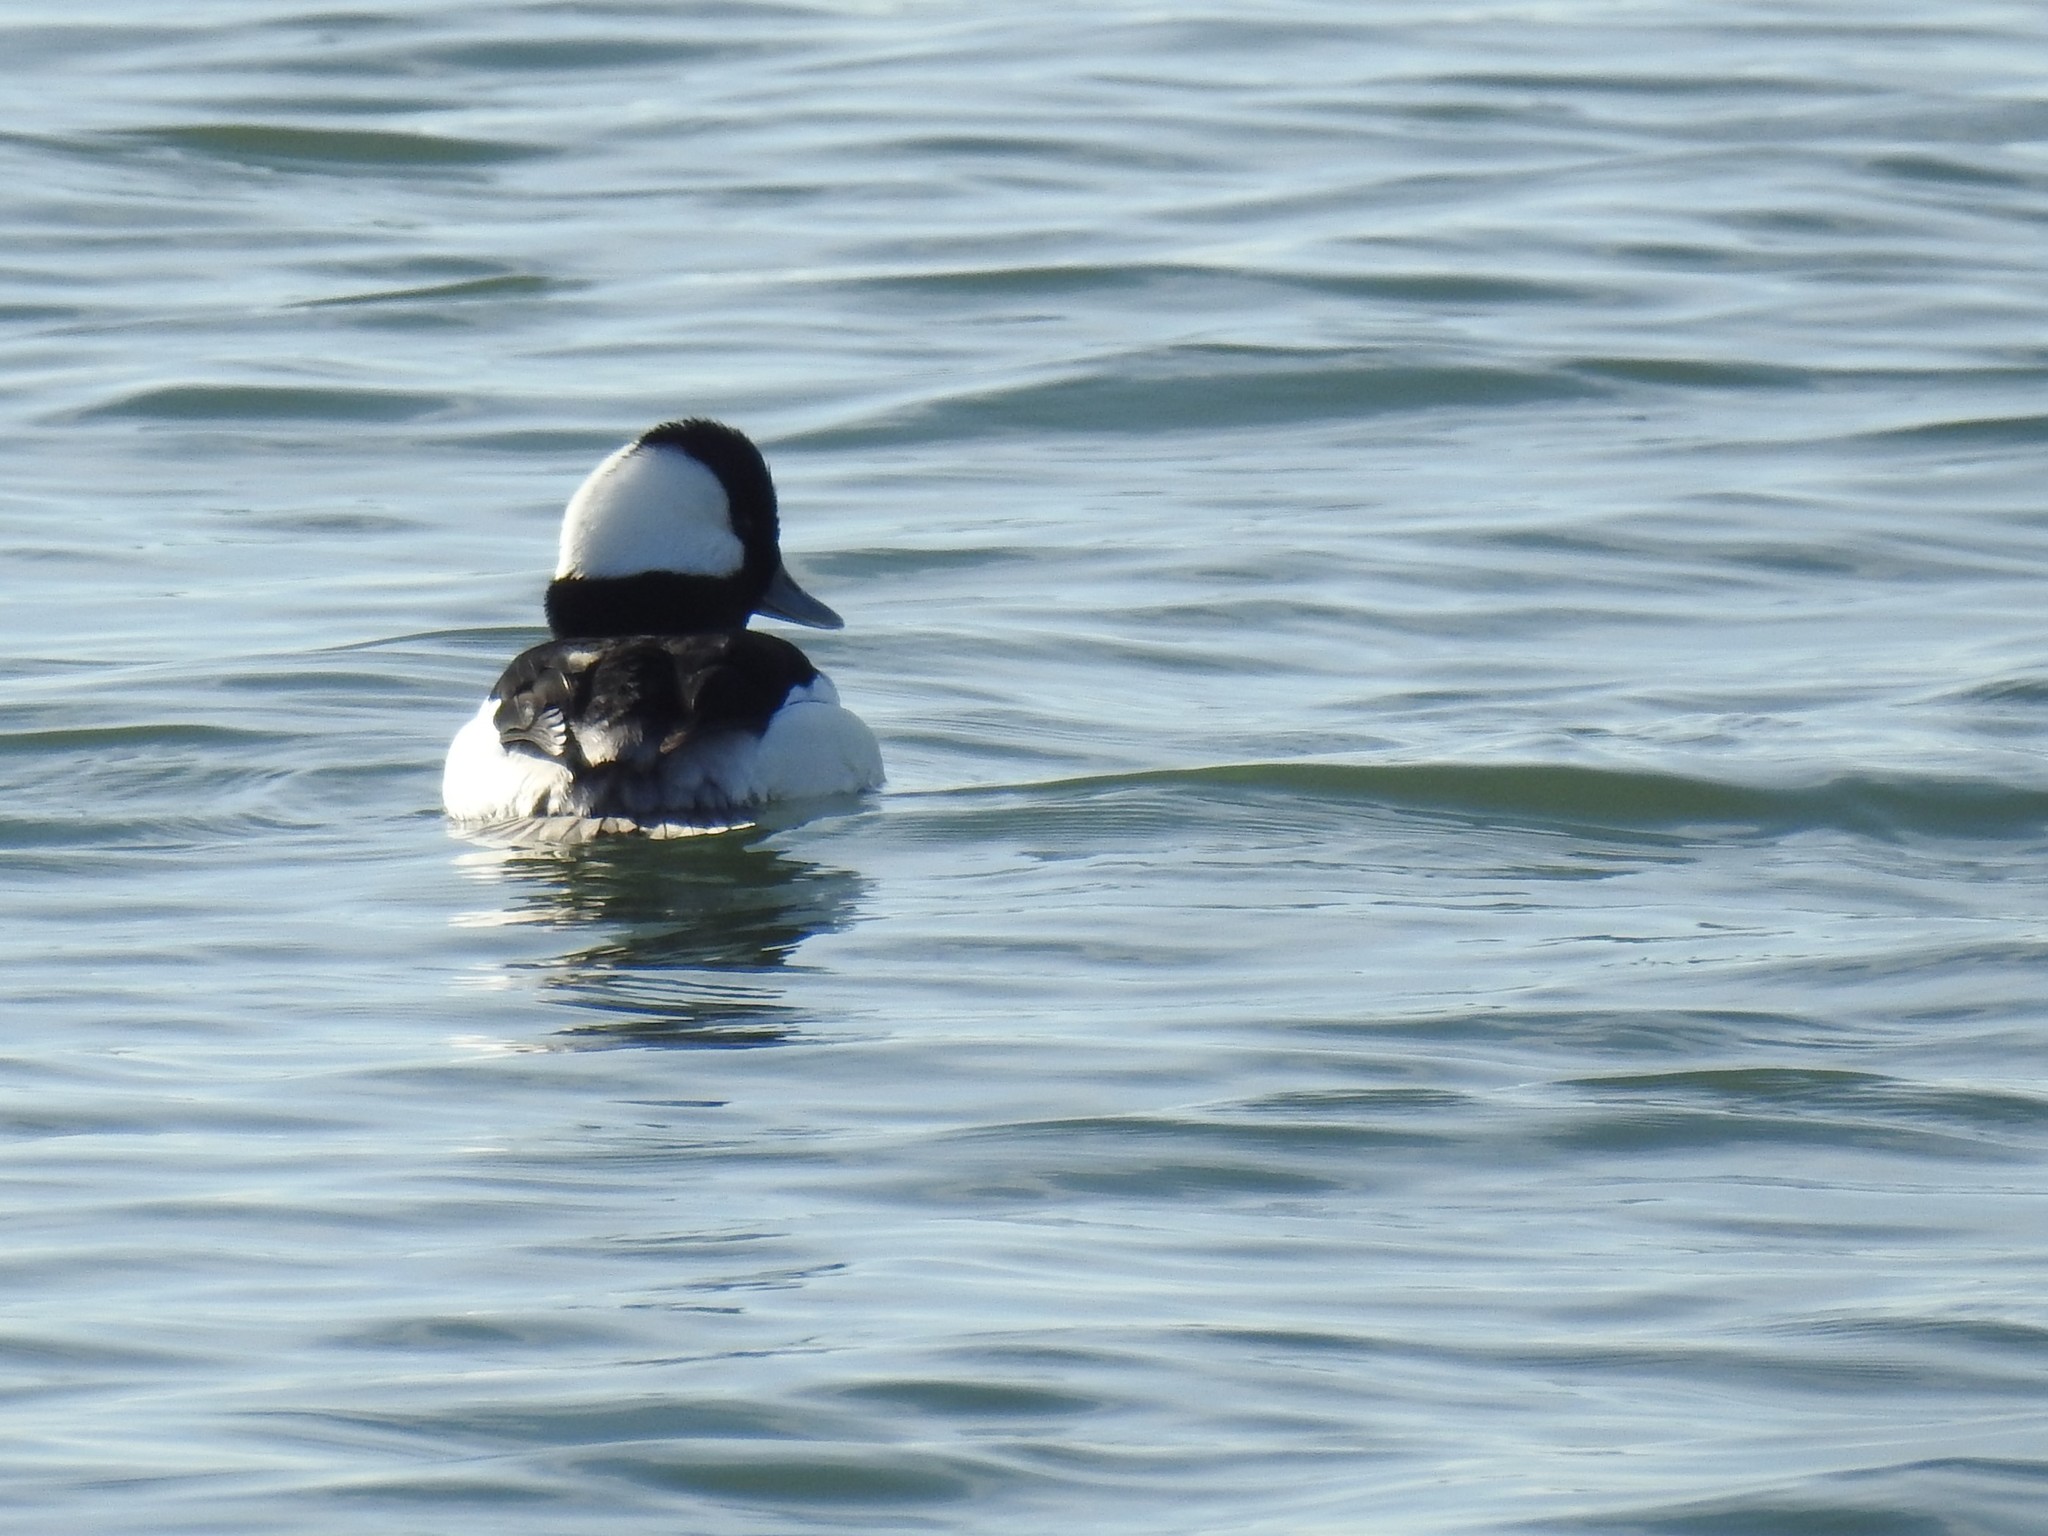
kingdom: Animalia
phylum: Chordata
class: Aves
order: Anseriformes
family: Anatidae
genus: Bucephala
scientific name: Bucephala albeola
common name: Bufflehead
